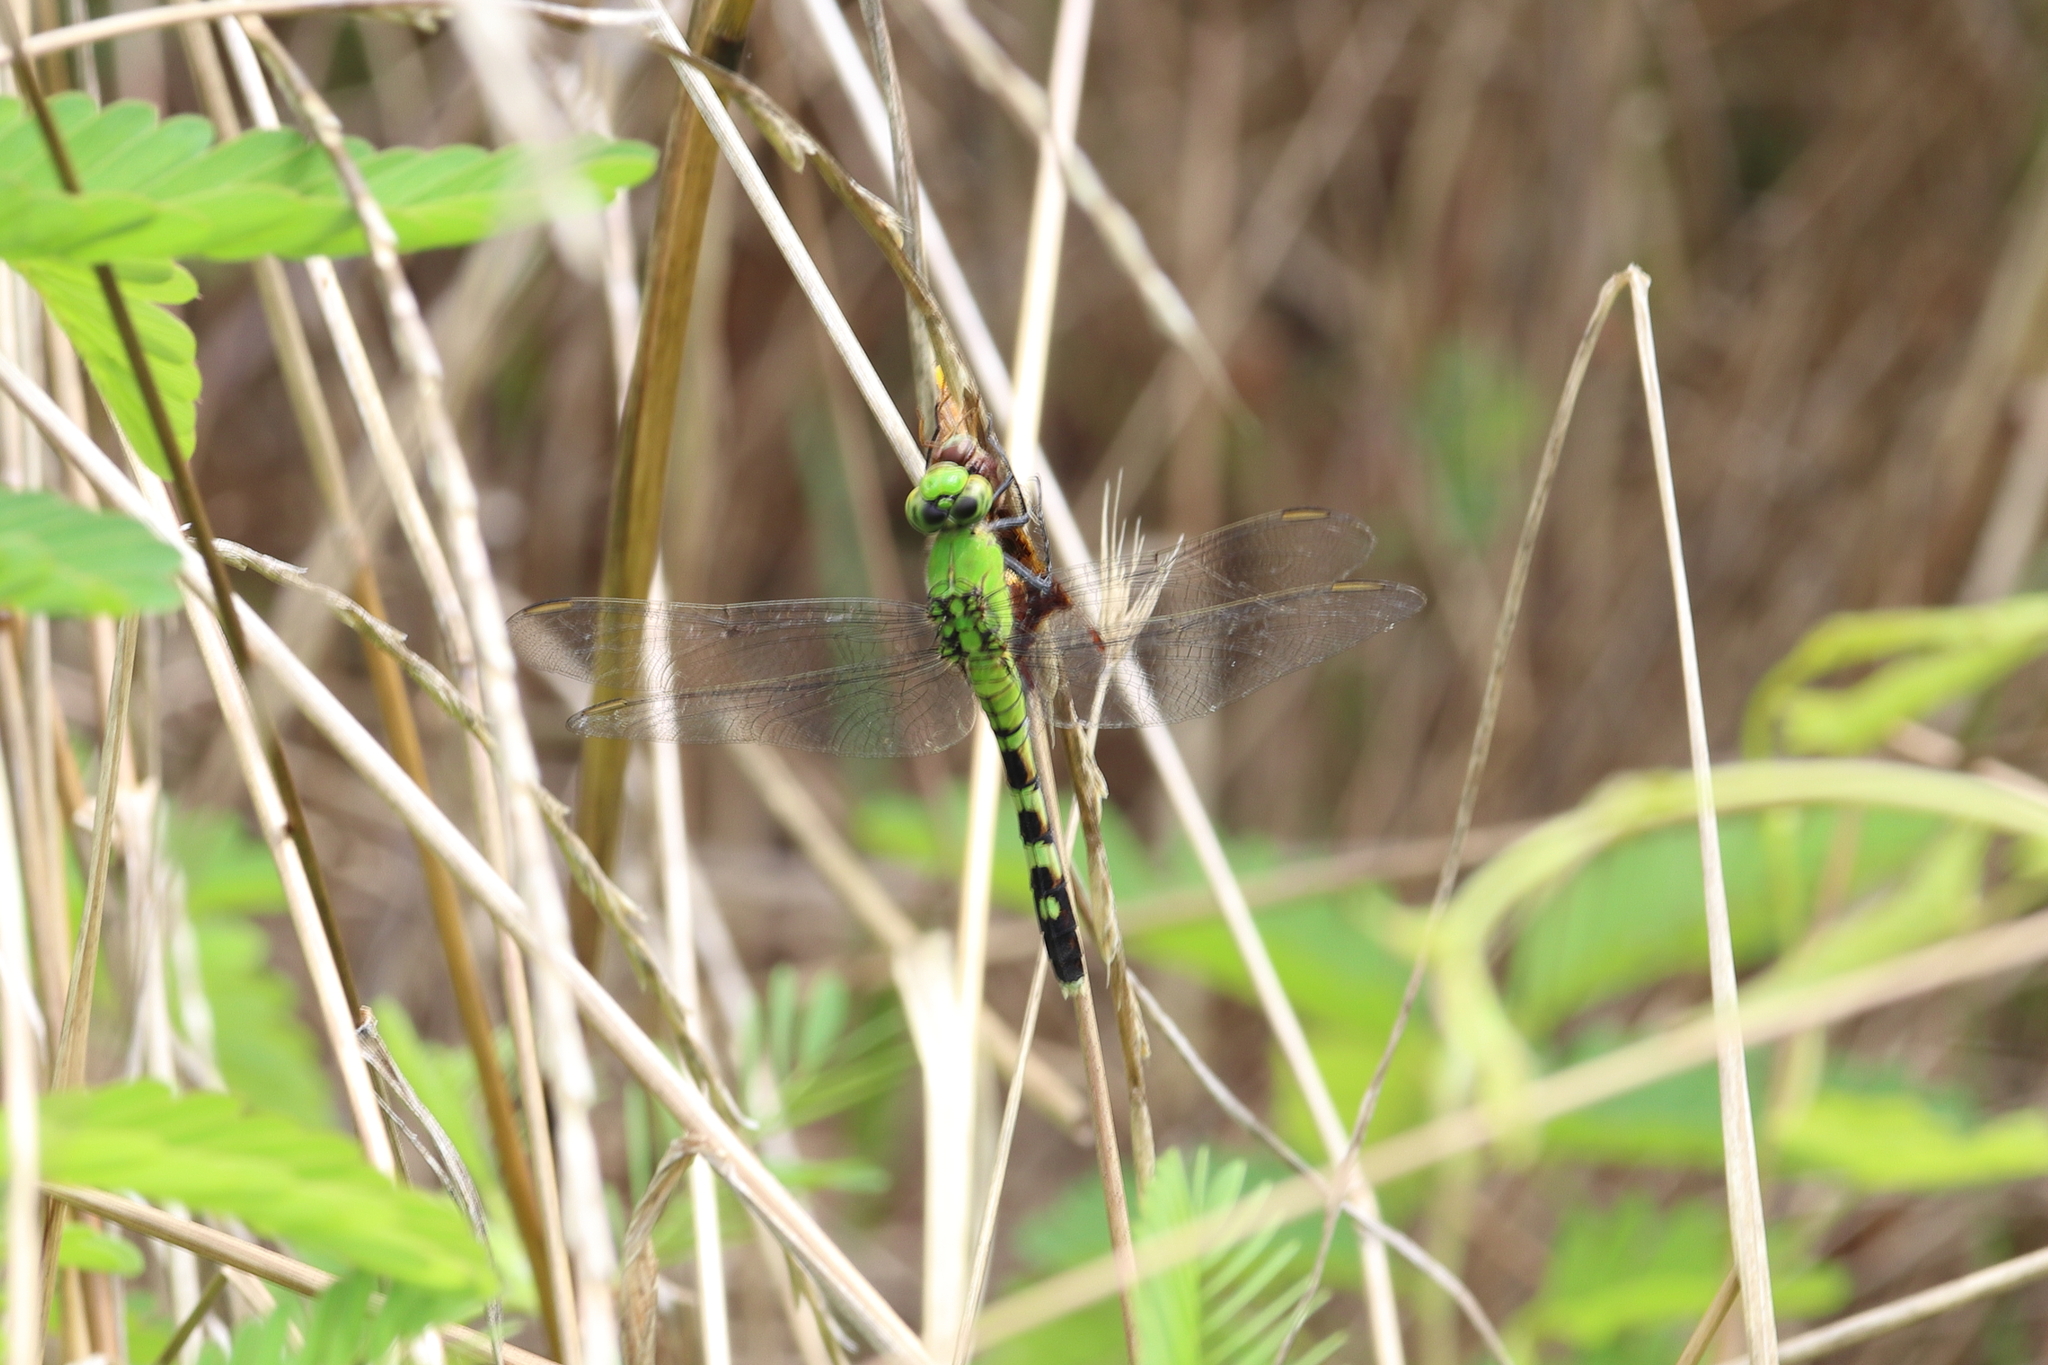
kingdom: Animalia
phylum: Arthropoda
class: Insecta
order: Odonata
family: Libellulidae
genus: Erythemis
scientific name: Erythemis simplicicollis
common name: Eastern pondhawk
